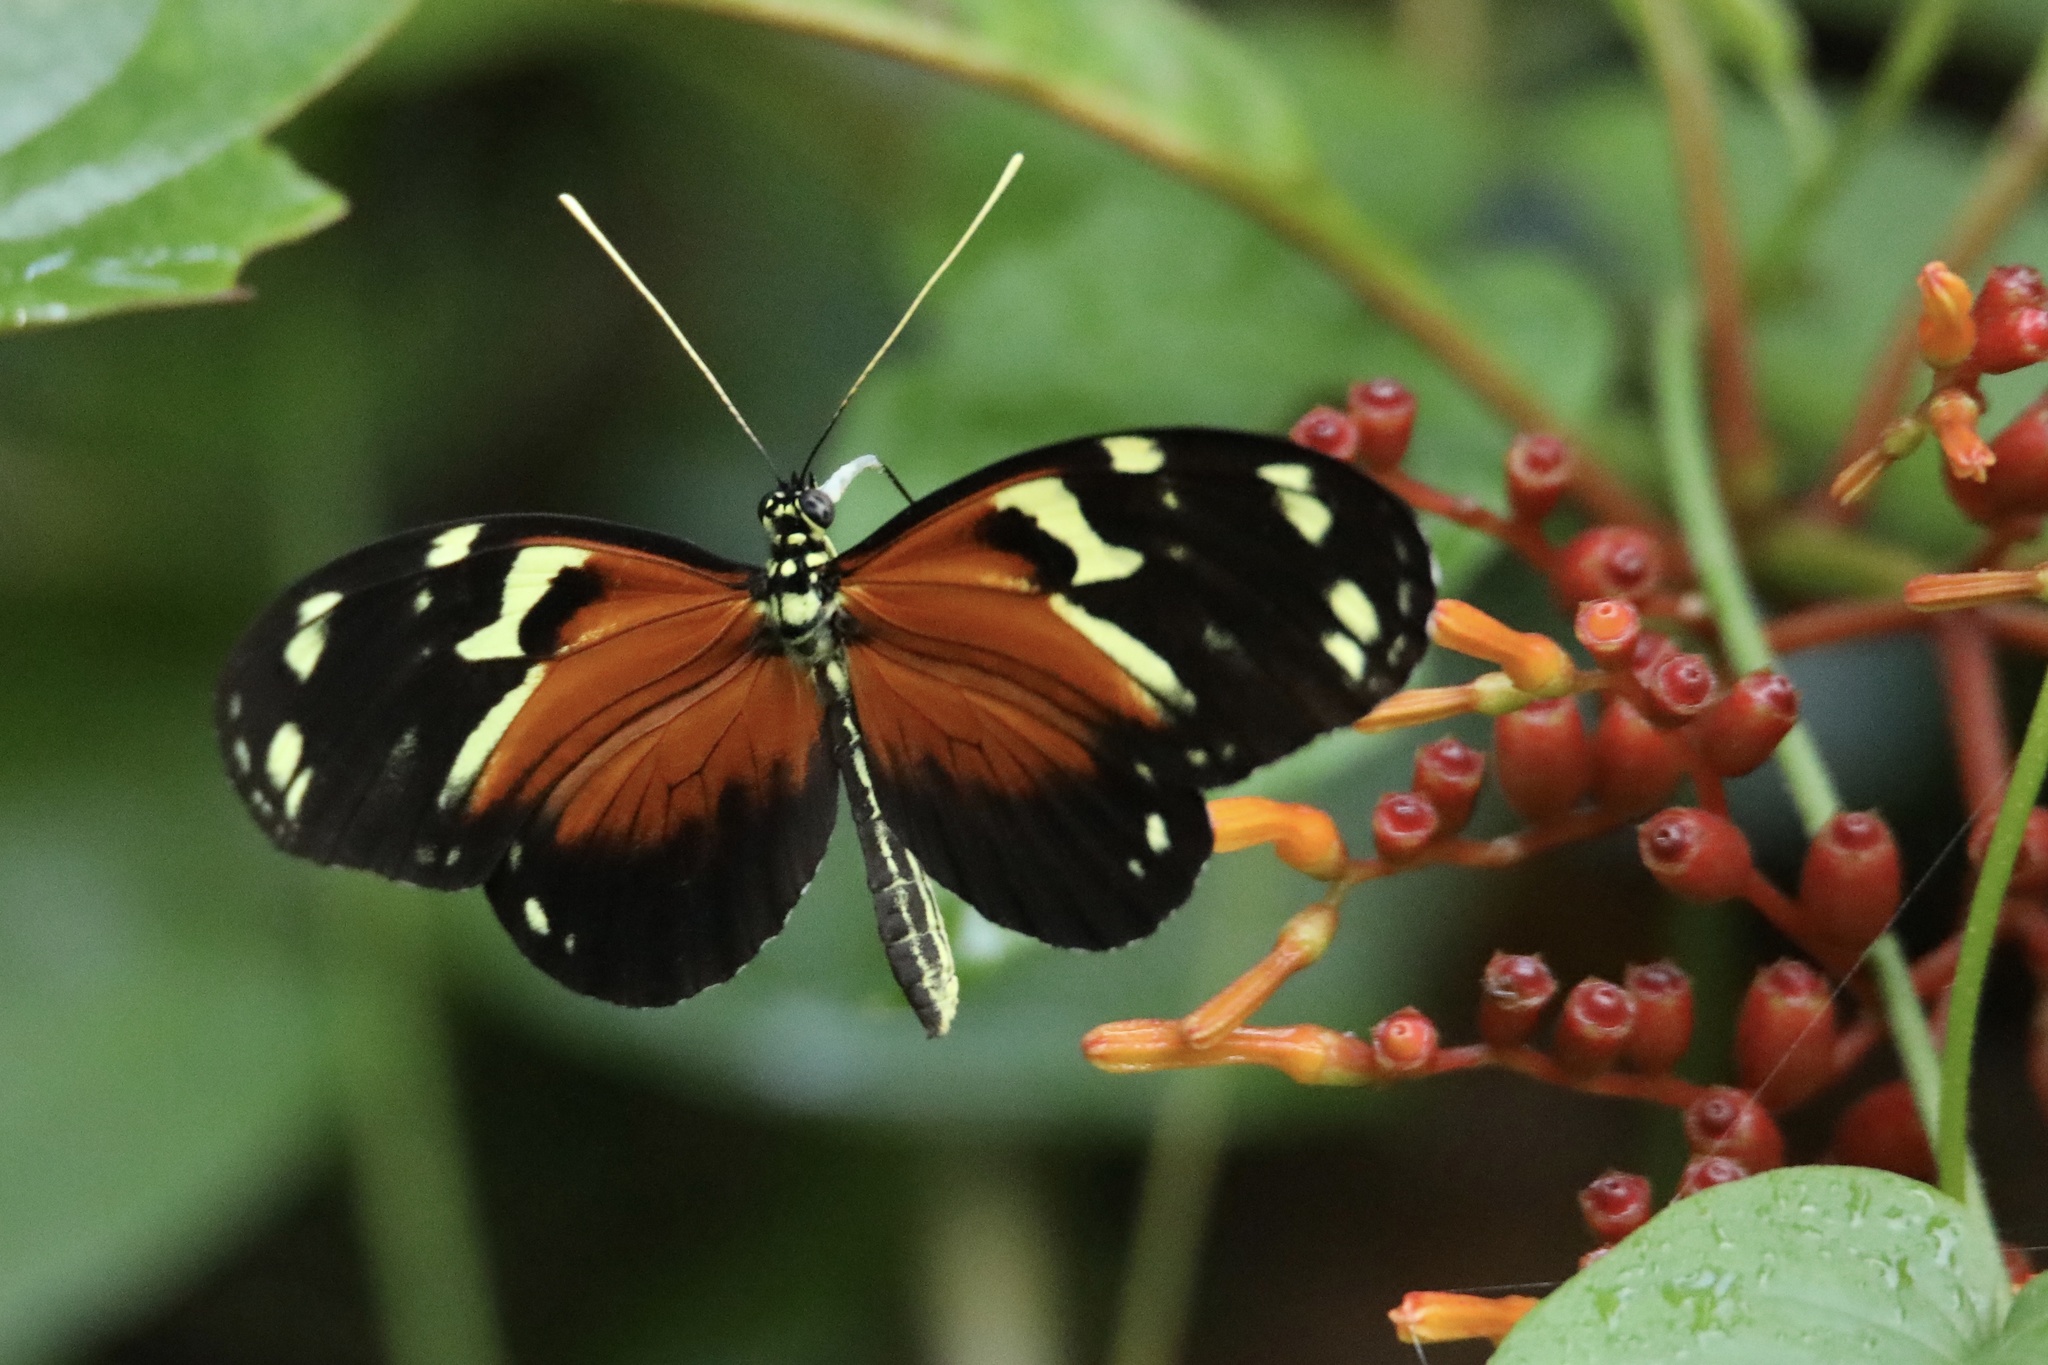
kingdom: Animalia
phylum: Arthropoda
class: Insecta
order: Lepidoptera
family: Nymphalidae
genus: Heliconius
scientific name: Heliconius ismenius
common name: Ismenius tiger
